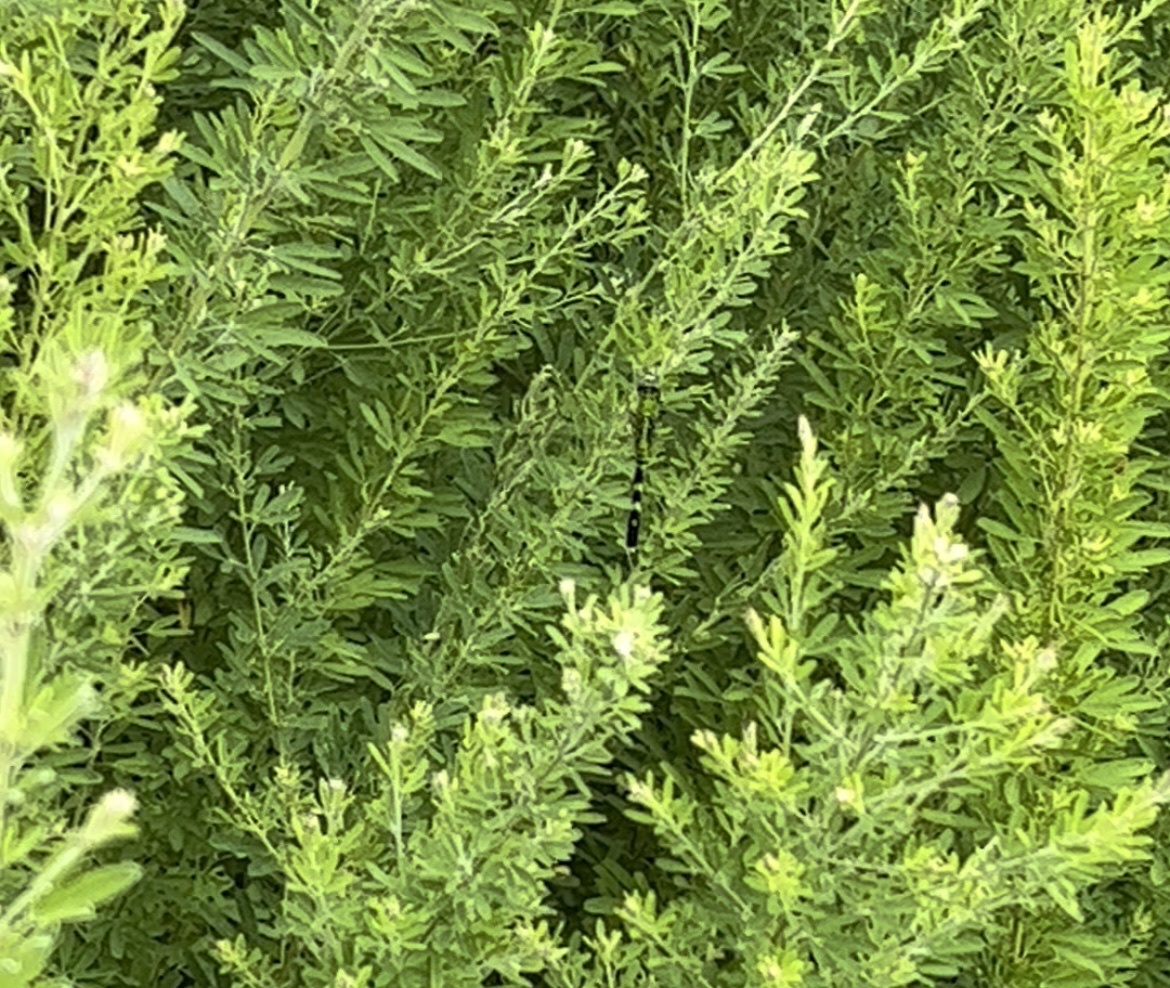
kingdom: Animalia
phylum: Arthropoda
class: Insecta
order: Odonata
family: Libellulidae
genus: Erythemis
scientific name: Erythemis simplicicollis
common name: Eastern pondhawk
